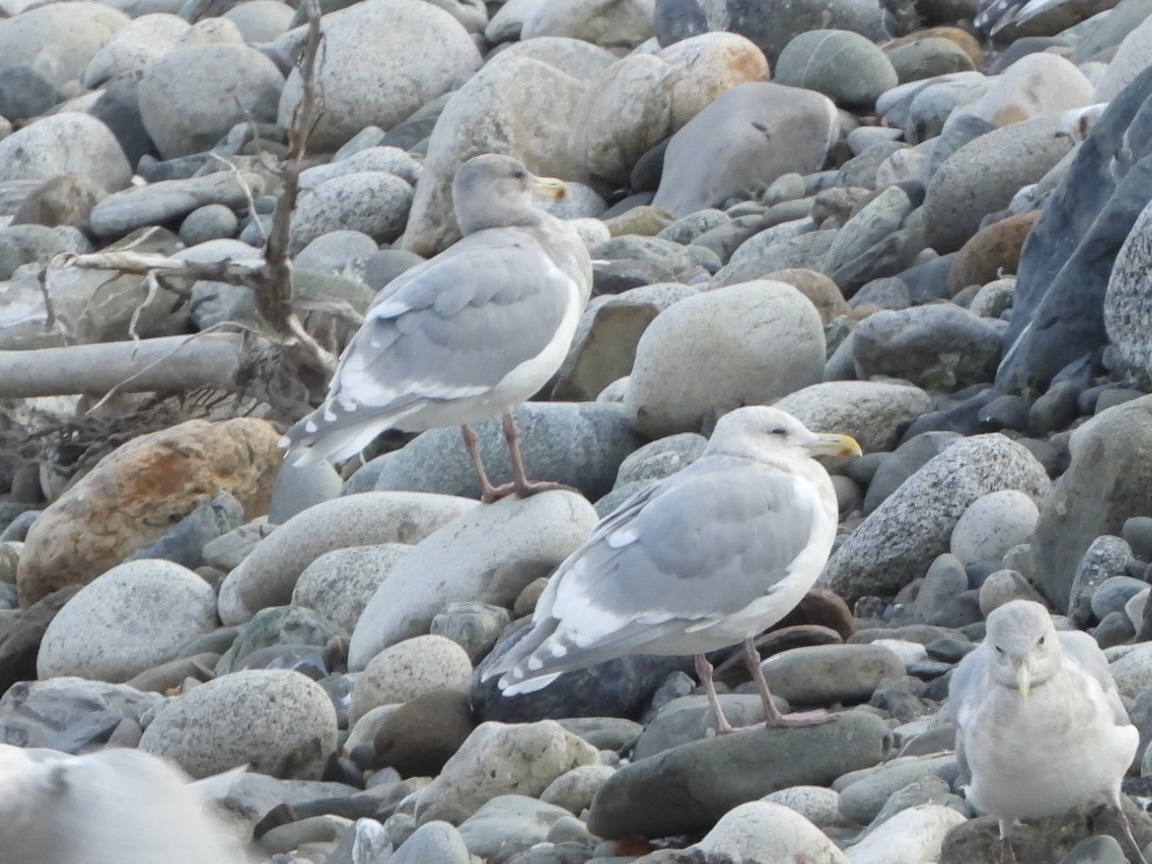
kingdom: Animalia
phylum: Chordata
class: Aves
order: Charadriiformes
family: Laridae
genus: Larus
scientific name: Larus glaucescens
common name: Glaucous-winged gull
